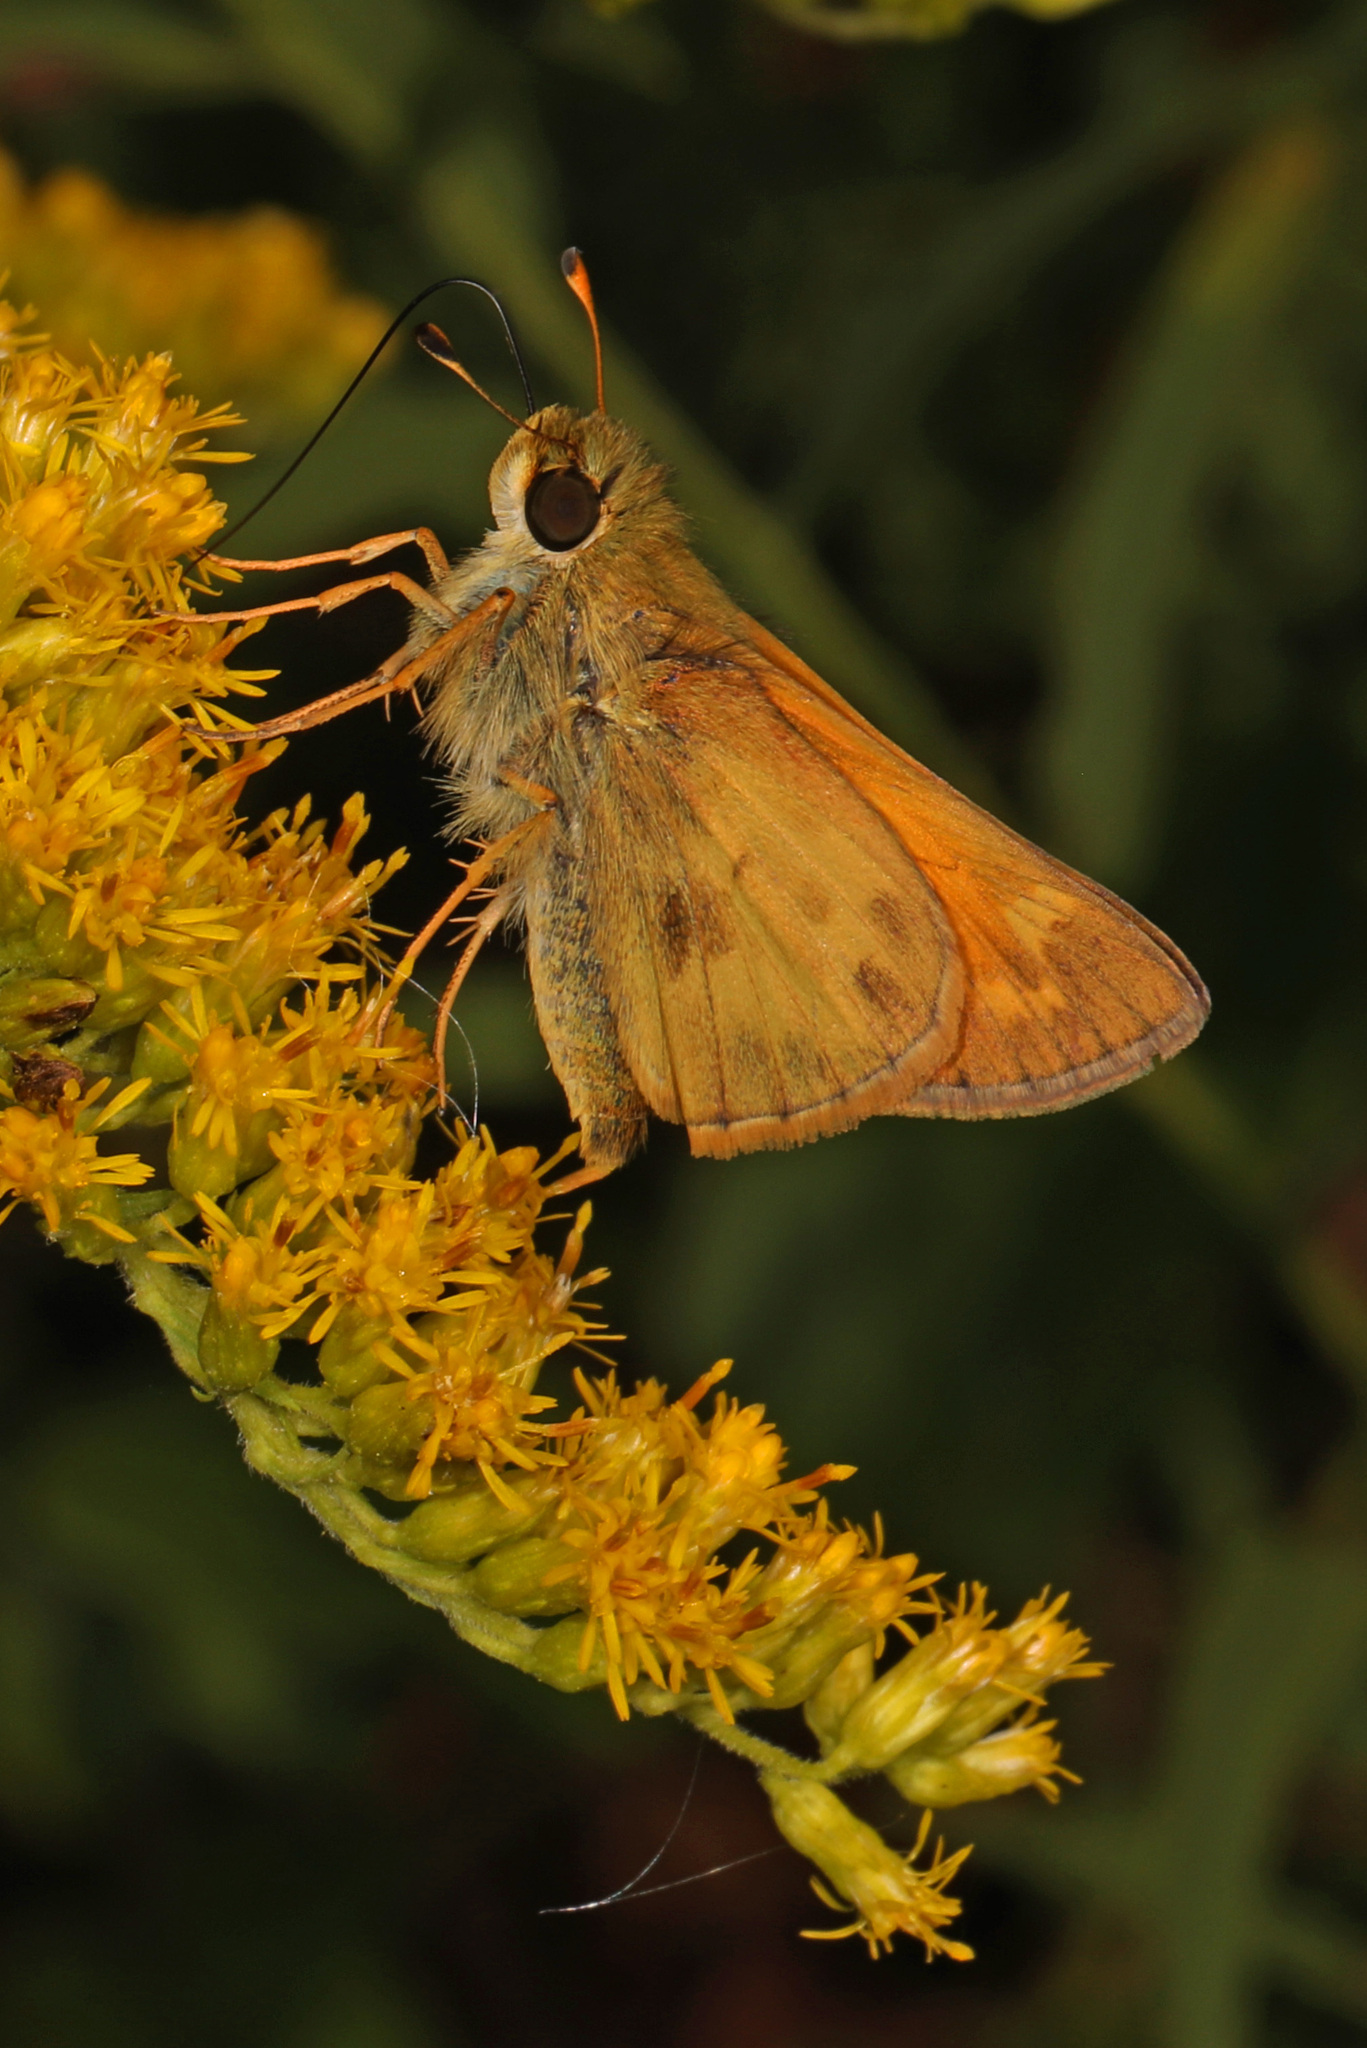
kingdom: Animalia
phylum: Arthropoda
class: Insecta
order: Lepidoptera
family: Hesperiidae
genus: Atalopedes
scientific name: Atalopedes
